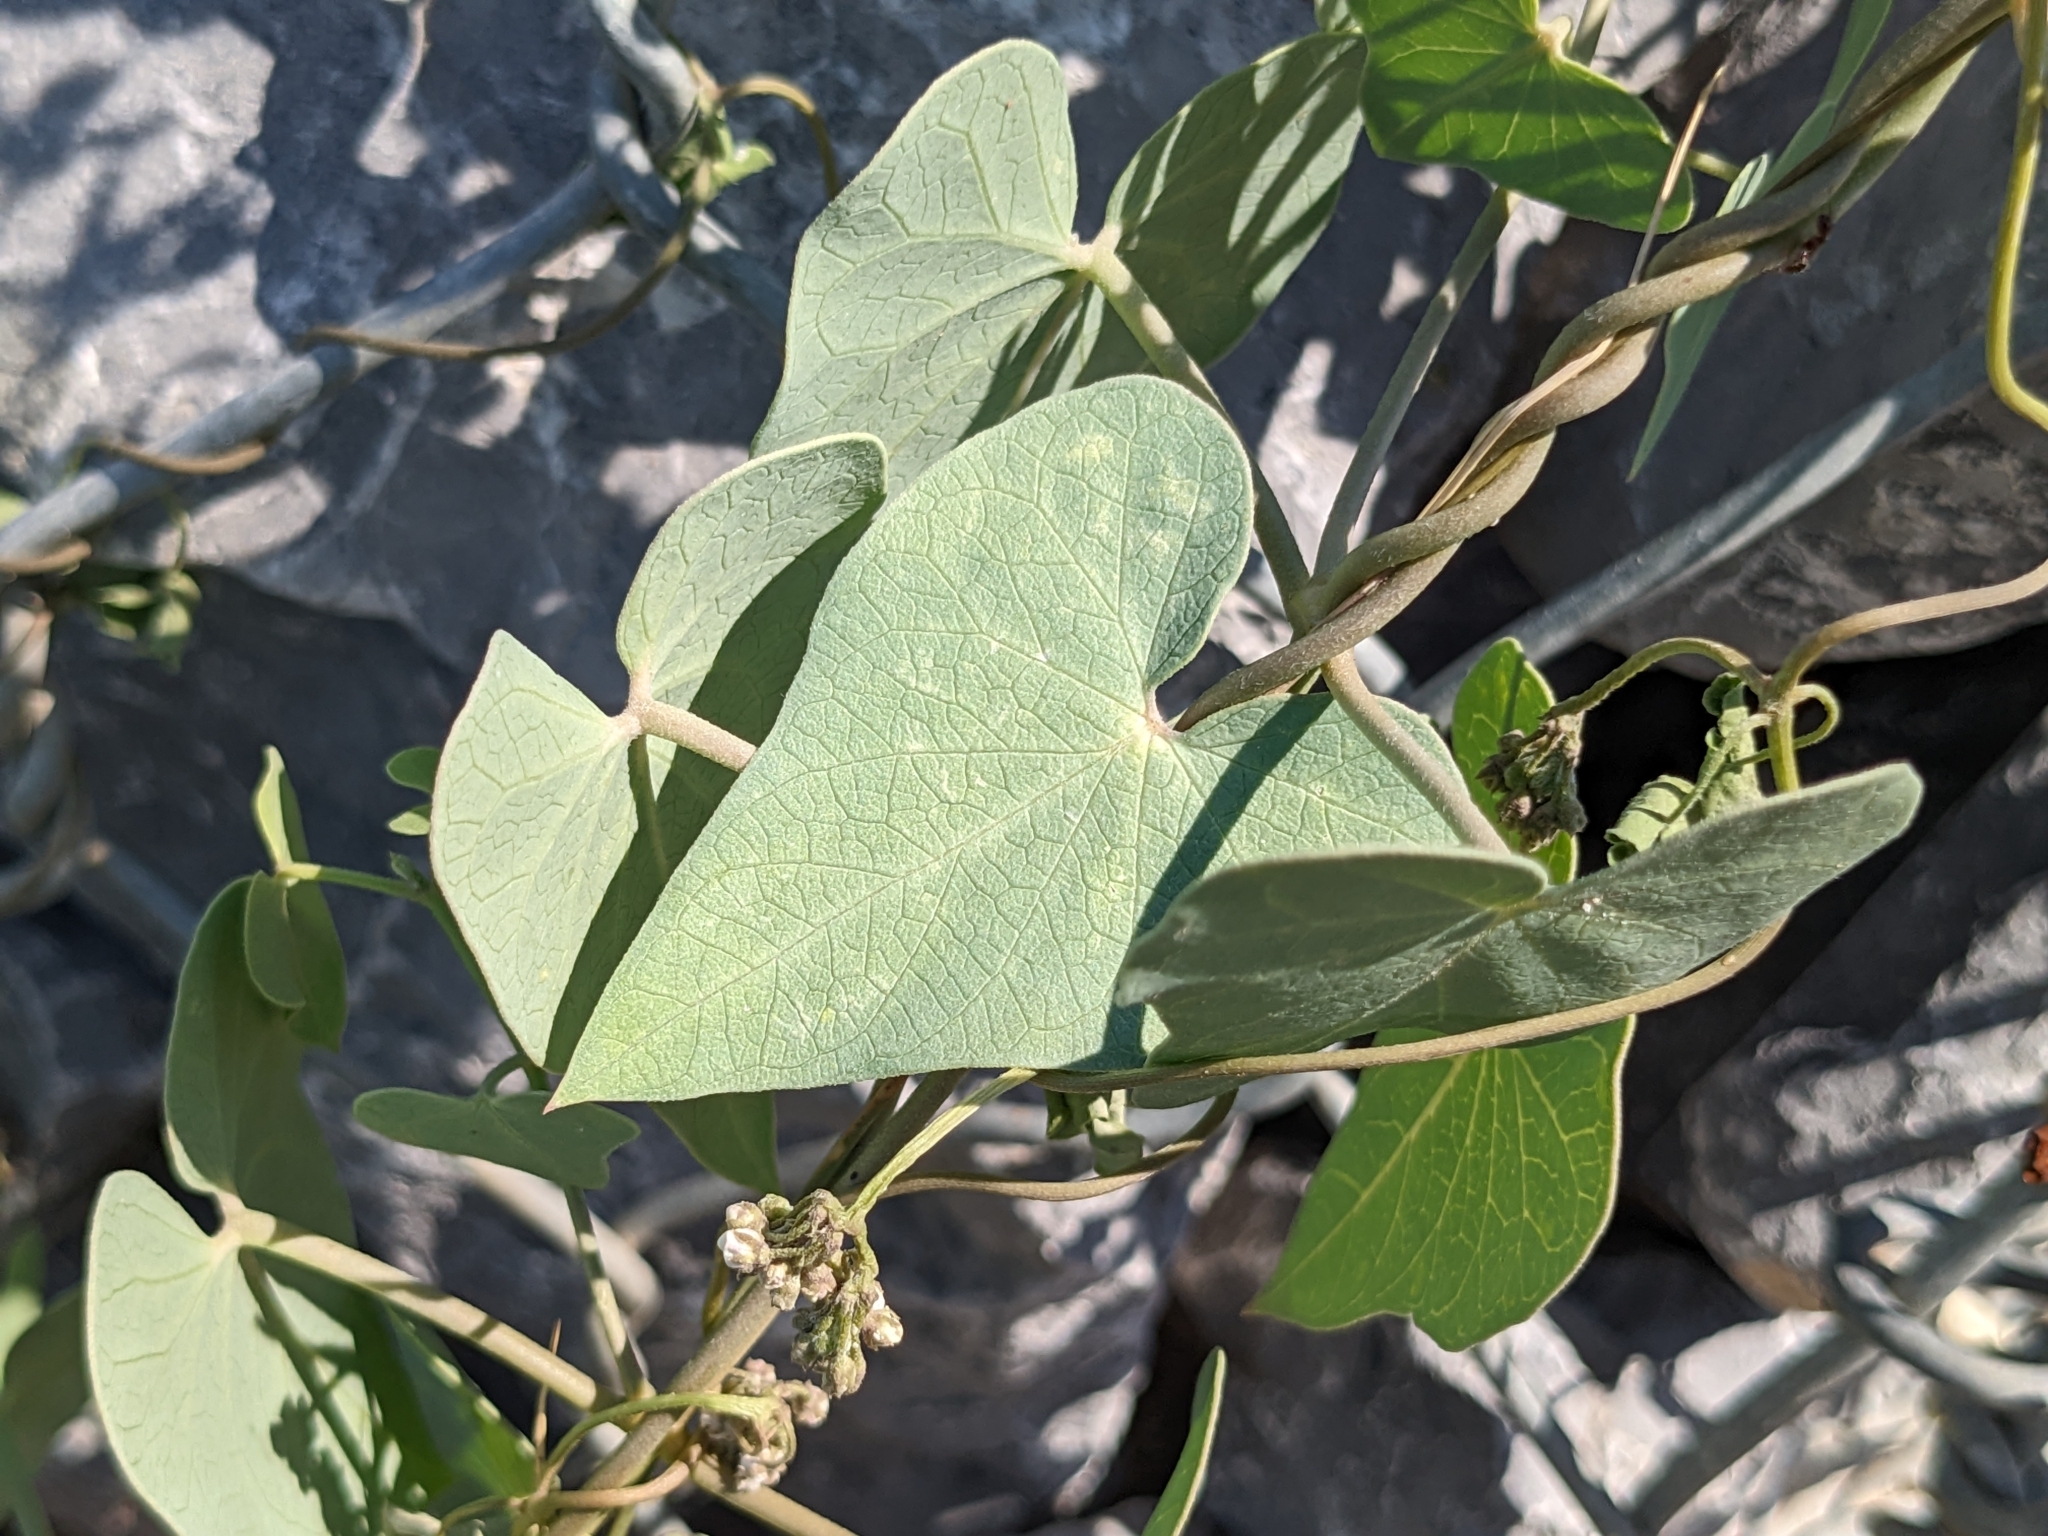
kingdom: Plantae
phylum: Tracheophyta
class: Magnoliopsida
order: Gentianales
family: Apocynaceae
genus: Cynanchum
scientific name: Cynanchum acutum
